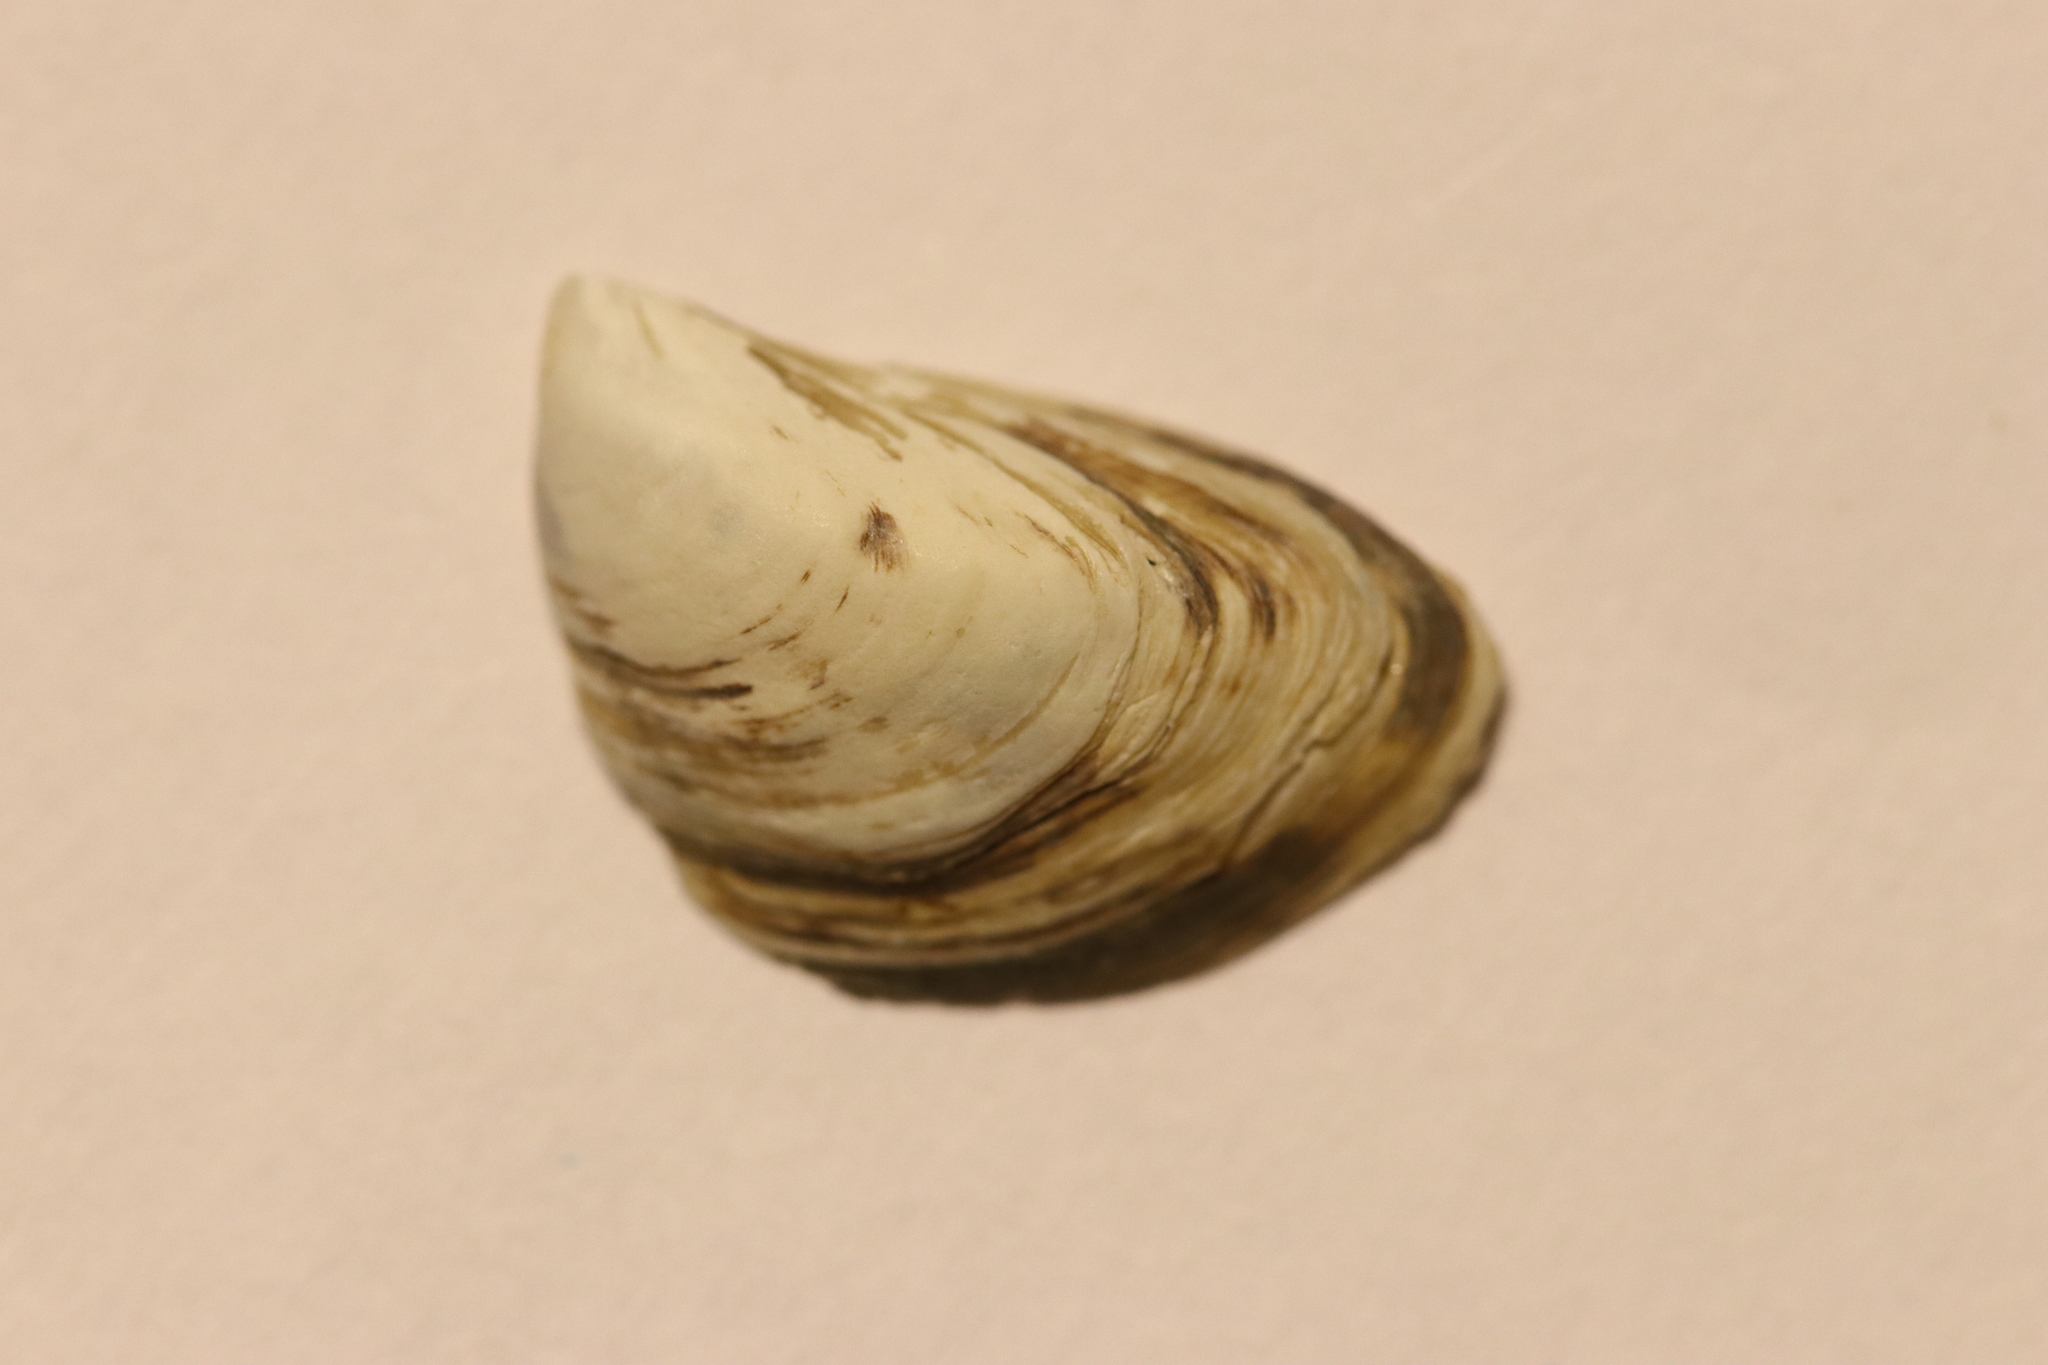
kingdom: Animalia
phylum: Mollusca
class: Bivalvia
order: Myida
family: Dreissenidae
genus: Dreissena
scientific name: Dreissena bugensis
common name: Quagga mussel
